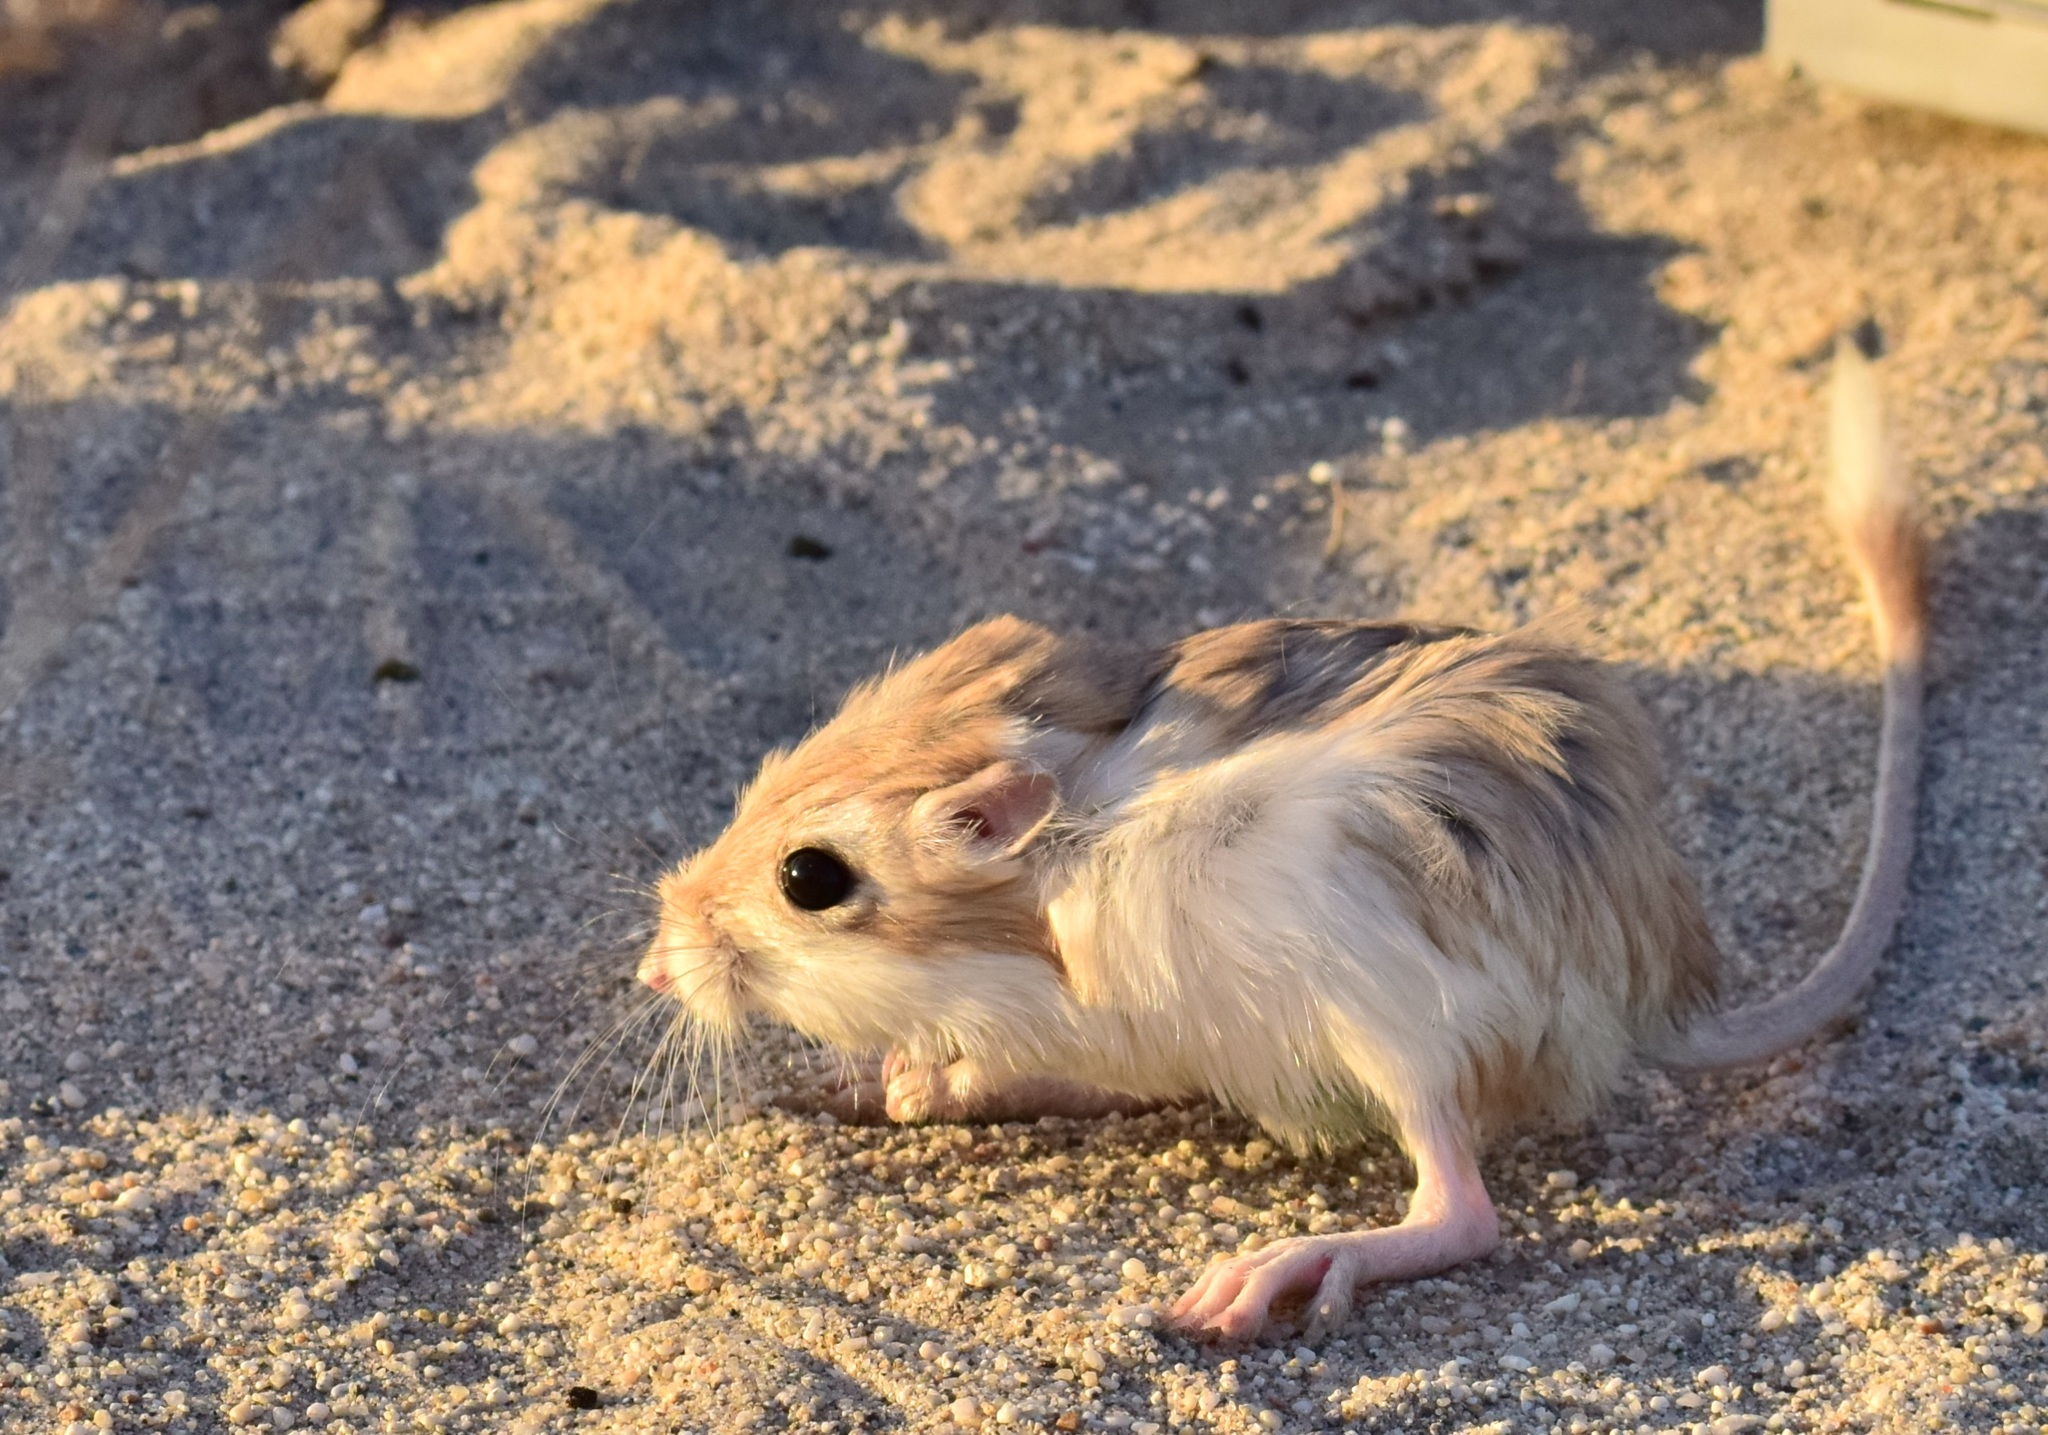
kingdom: Animalia
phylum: Chordata
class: Mammalia
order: Rodentia
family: Heteromyidae
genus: Dipodomys
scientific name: Dipodomys deserti
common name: Desert kangaroo rat
